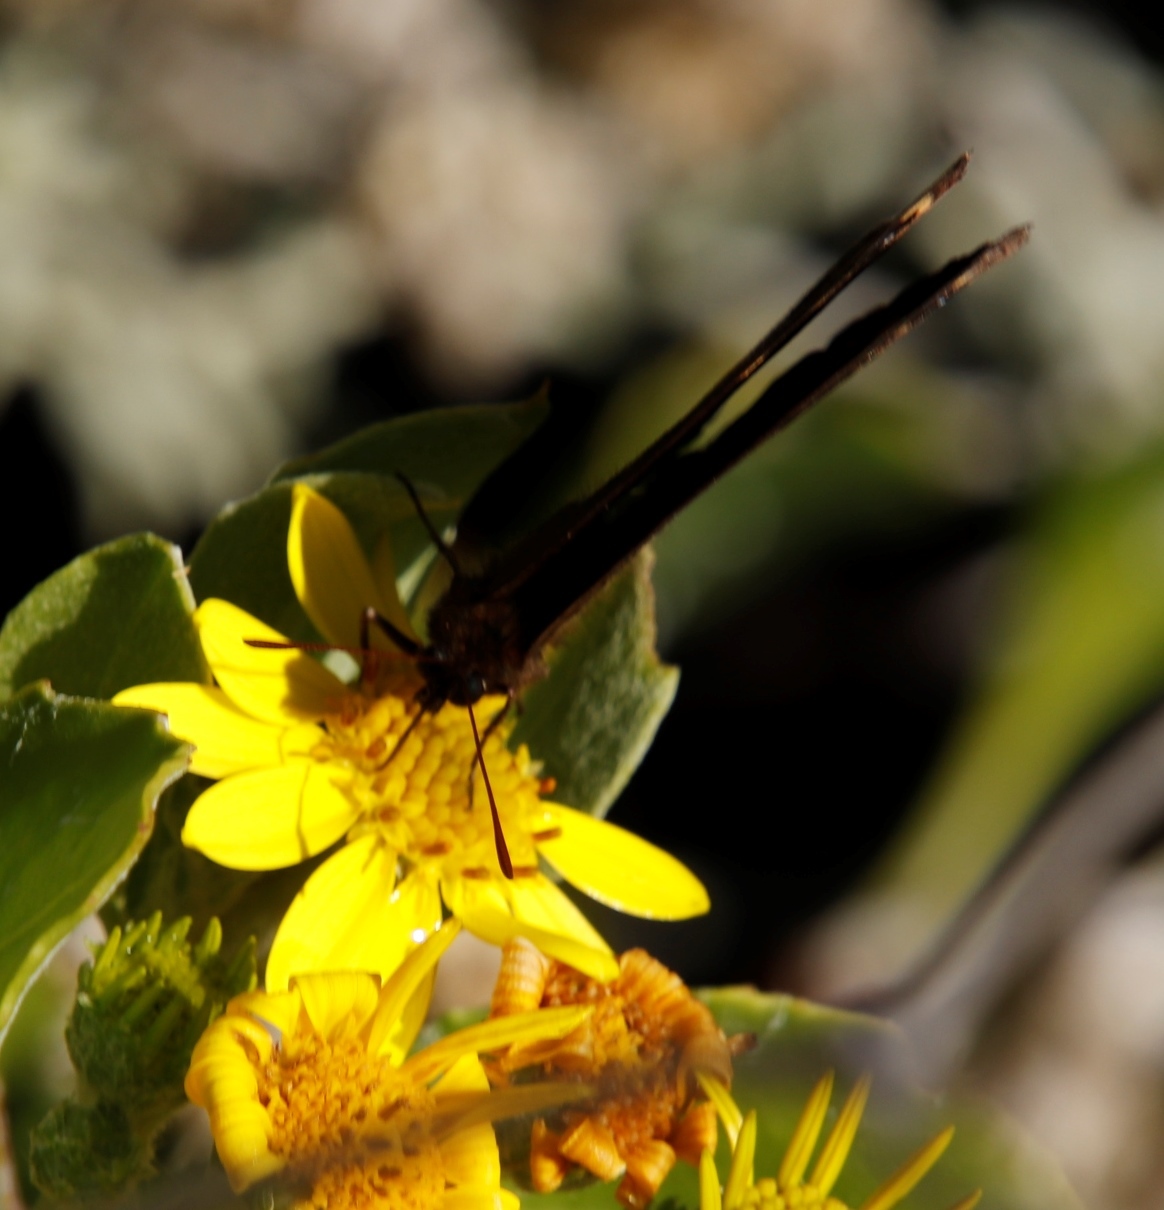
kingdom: Animalia
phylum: Arthropoda
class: Insecta
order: Lepidoptera
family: Nymphalidae
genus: Dira
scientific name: Dira clytus
